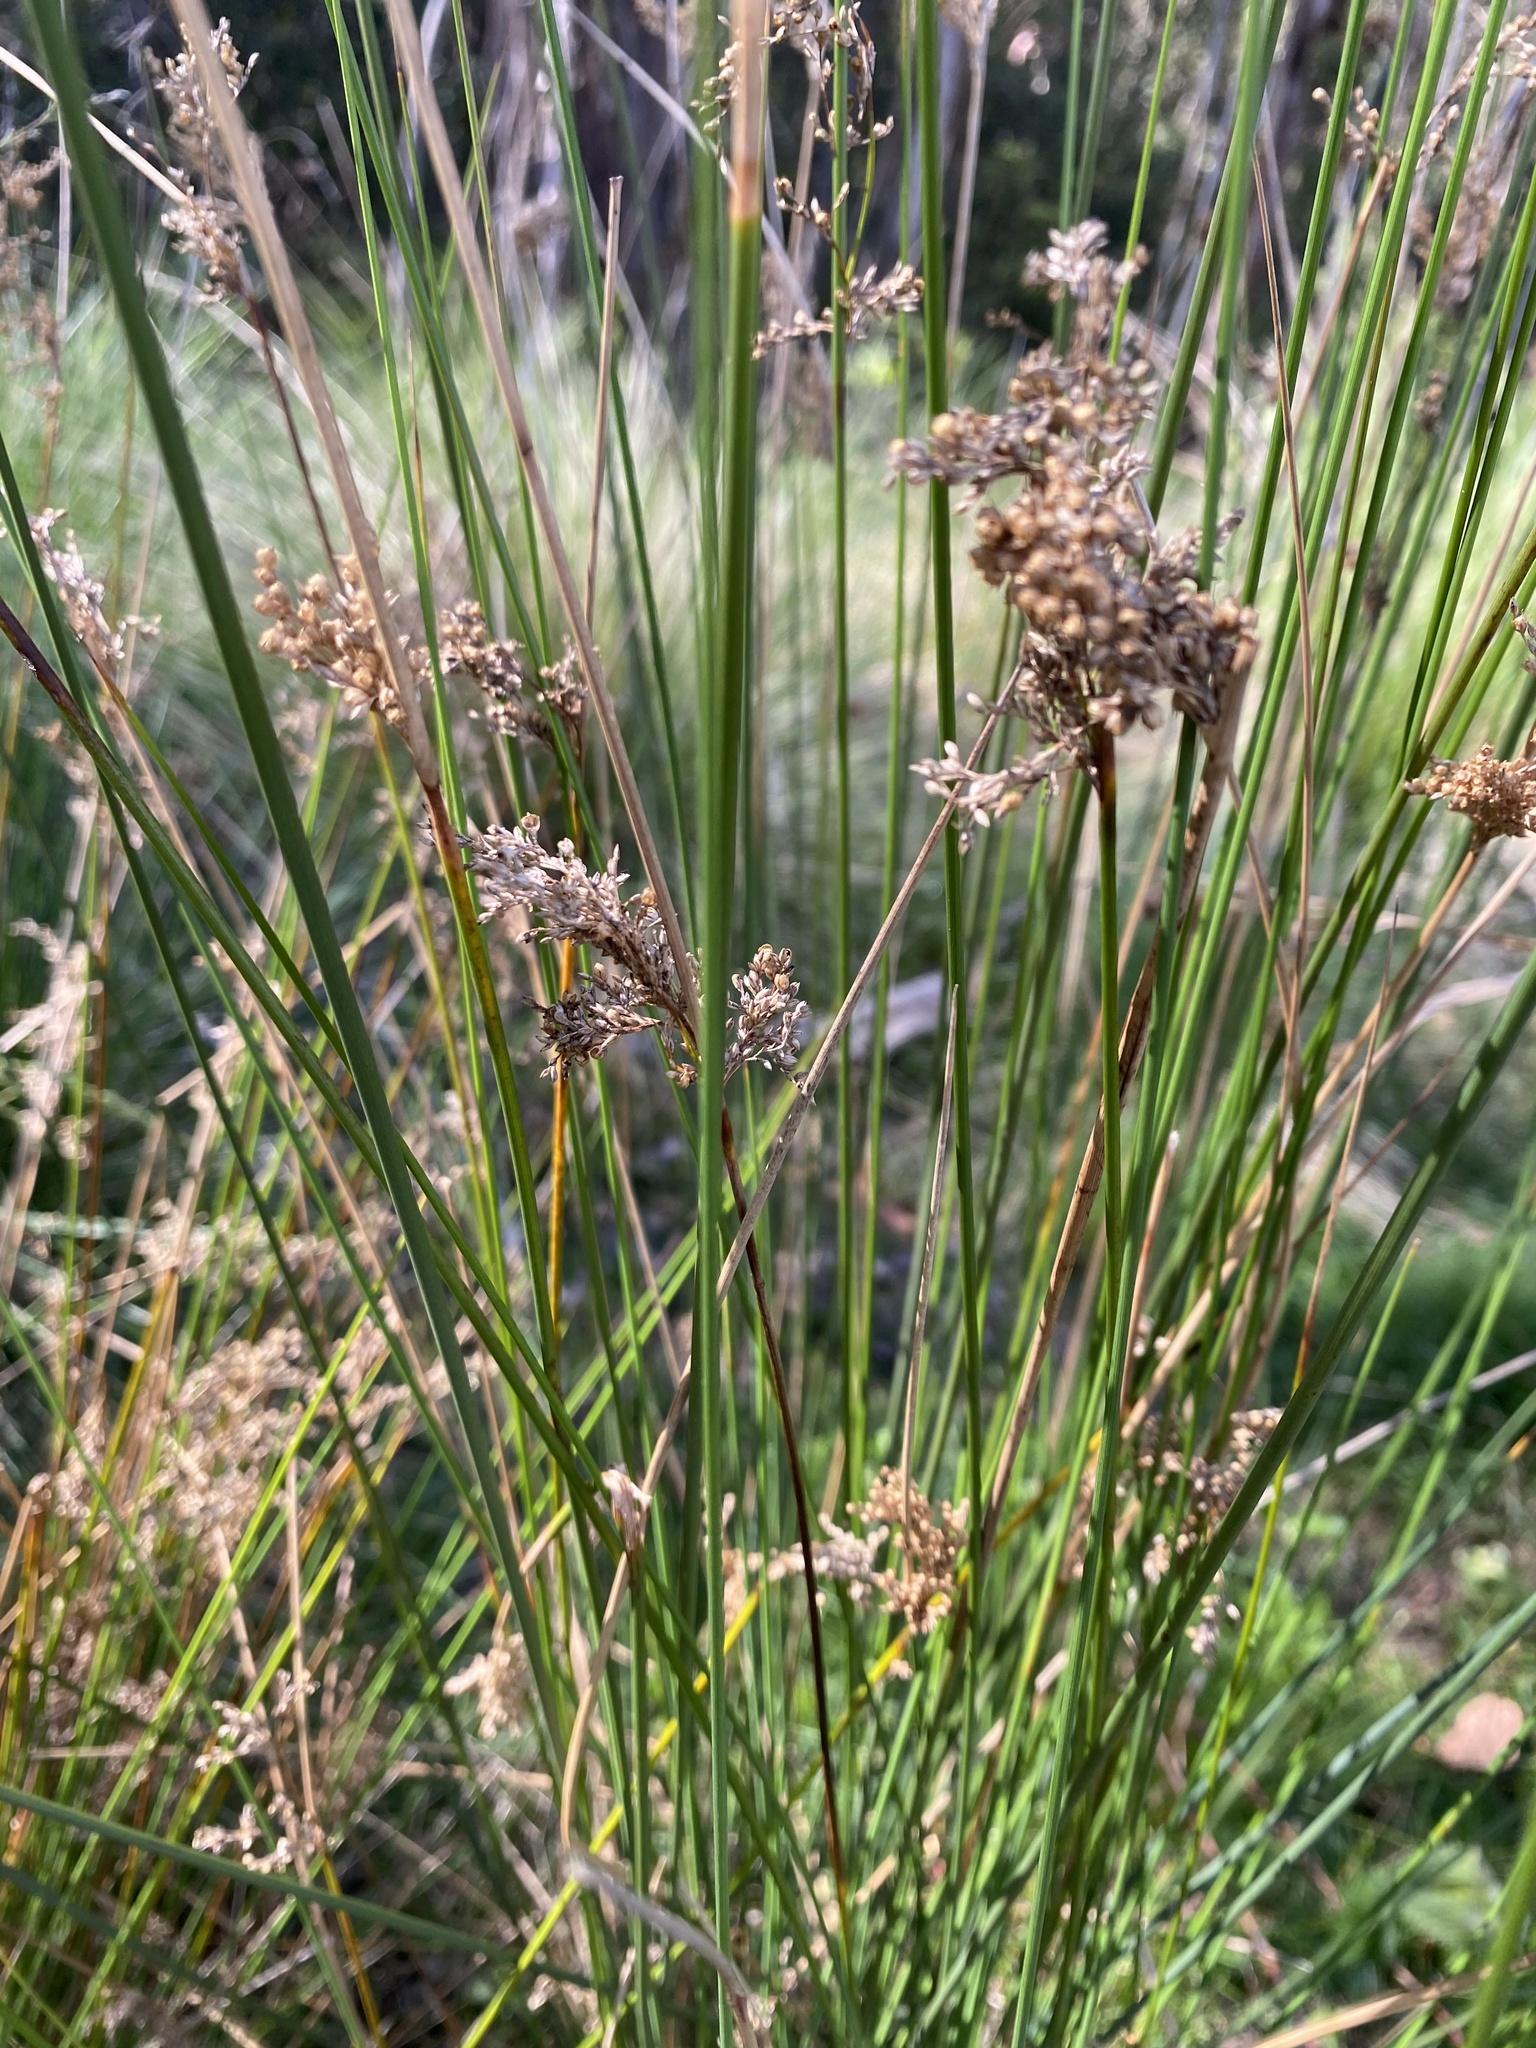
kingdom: Plantae
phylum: Tracheophyta
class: Liliopsida
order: Poales
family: Juncaceae
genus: Juncus
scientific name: Juncus
